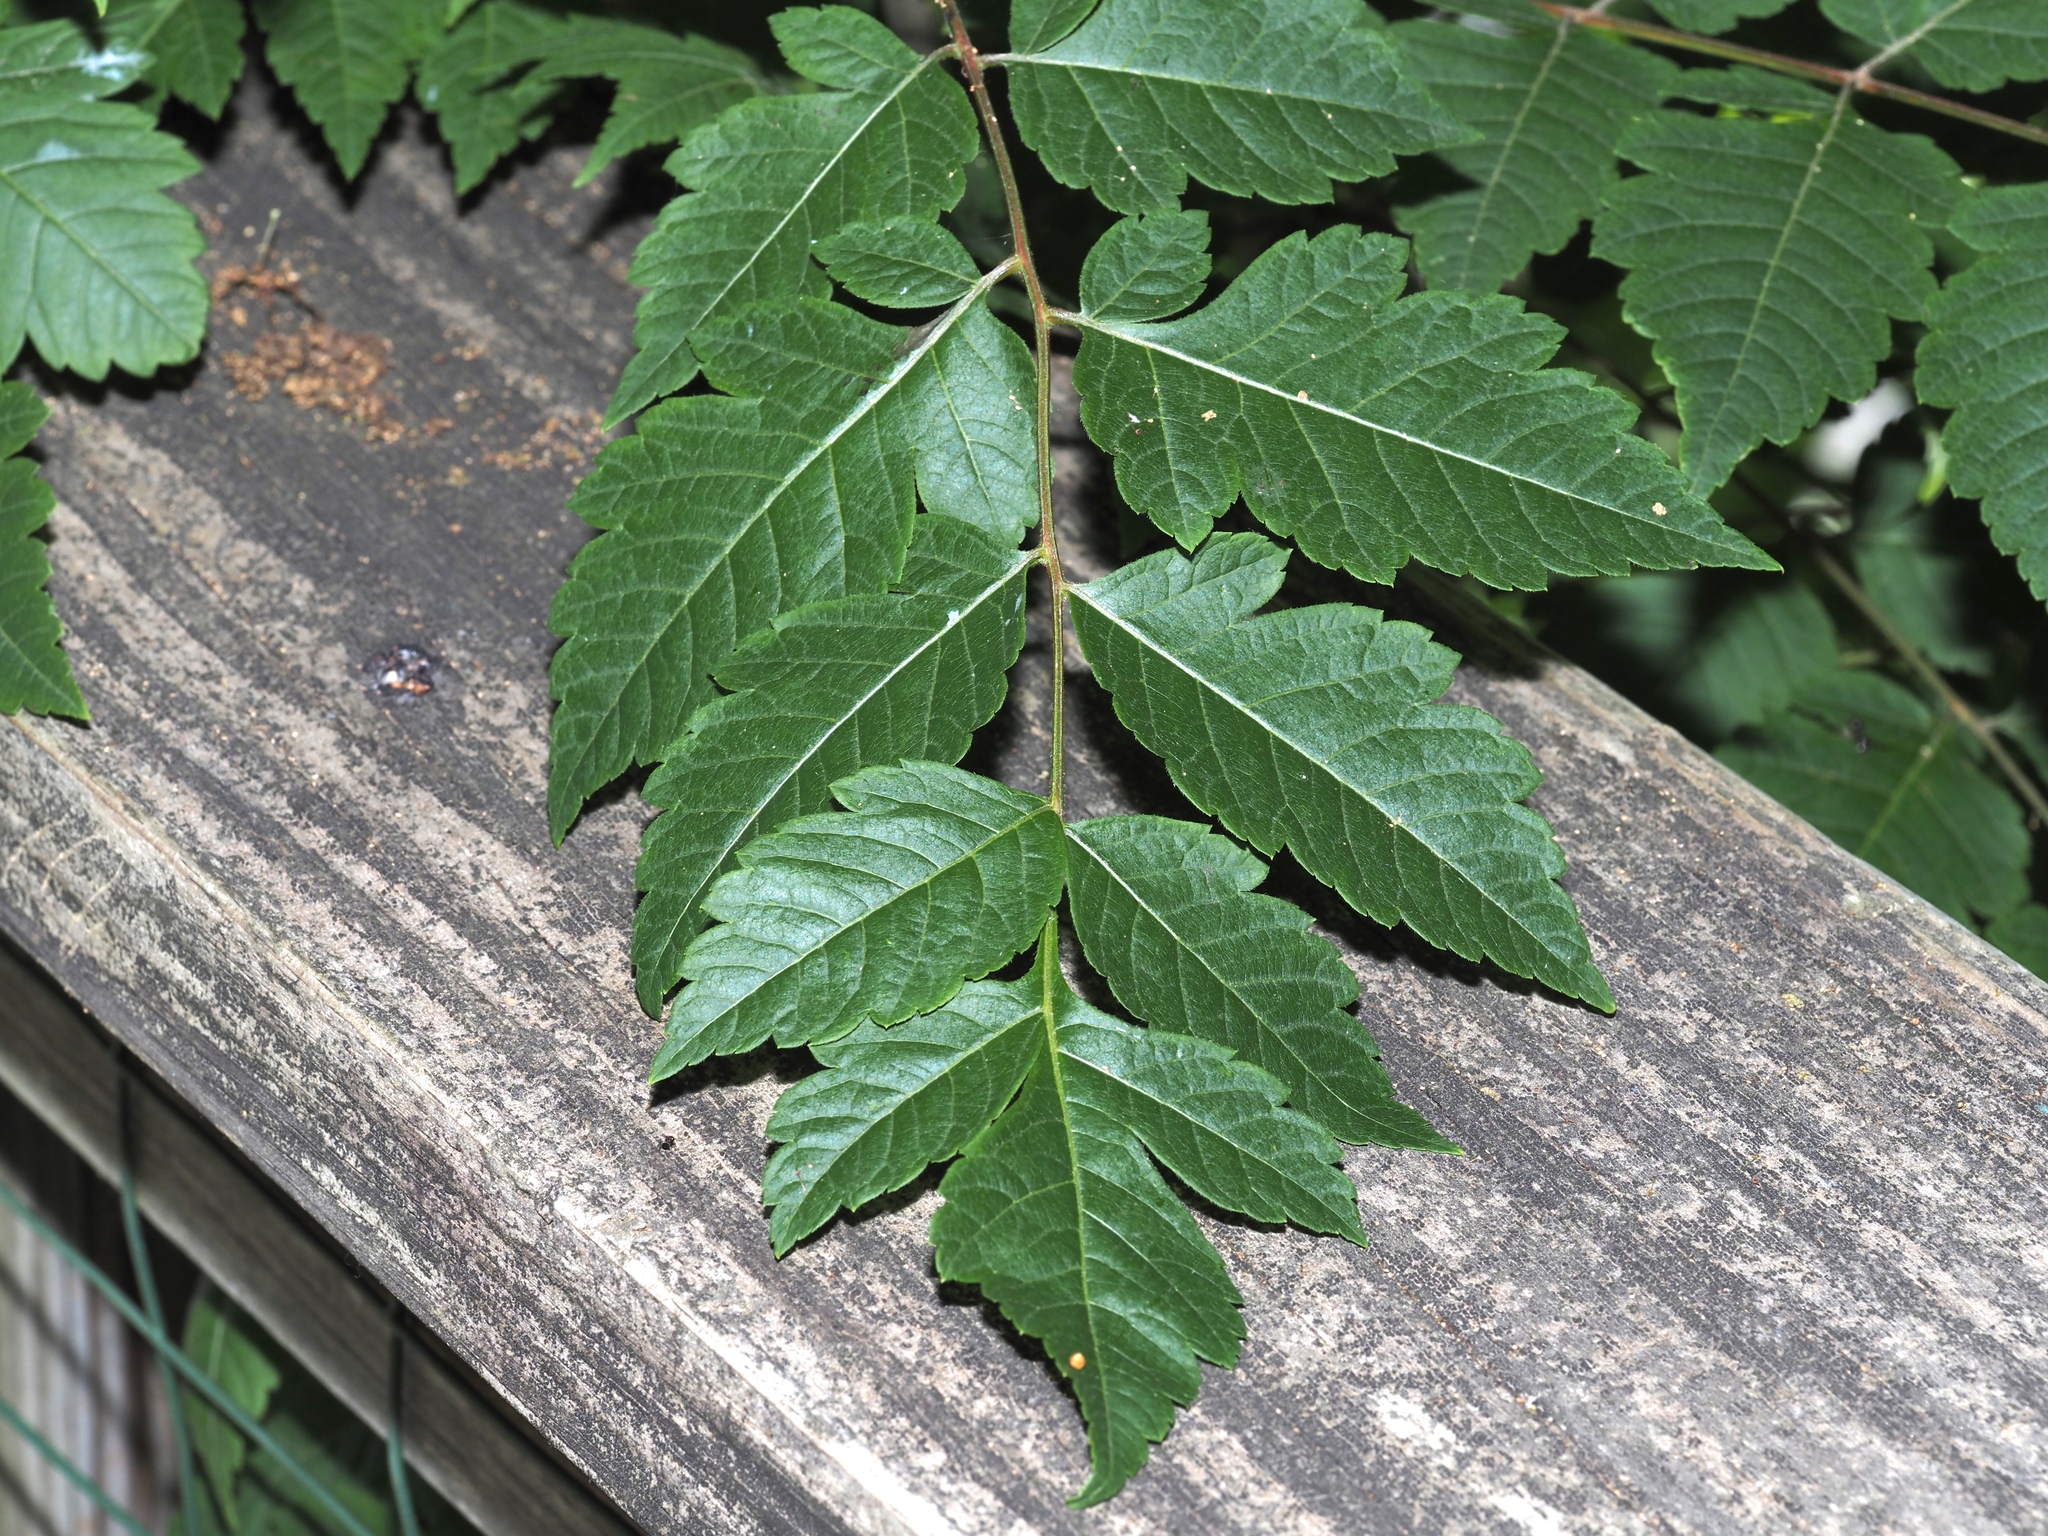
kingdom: Plantae
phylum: Tracheophyta
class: Magnoliopsida
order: Sapindales
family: Sapindaceae
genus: Koelreuteria
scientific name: Koelreuteria paniculata
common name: Pride-of-india
